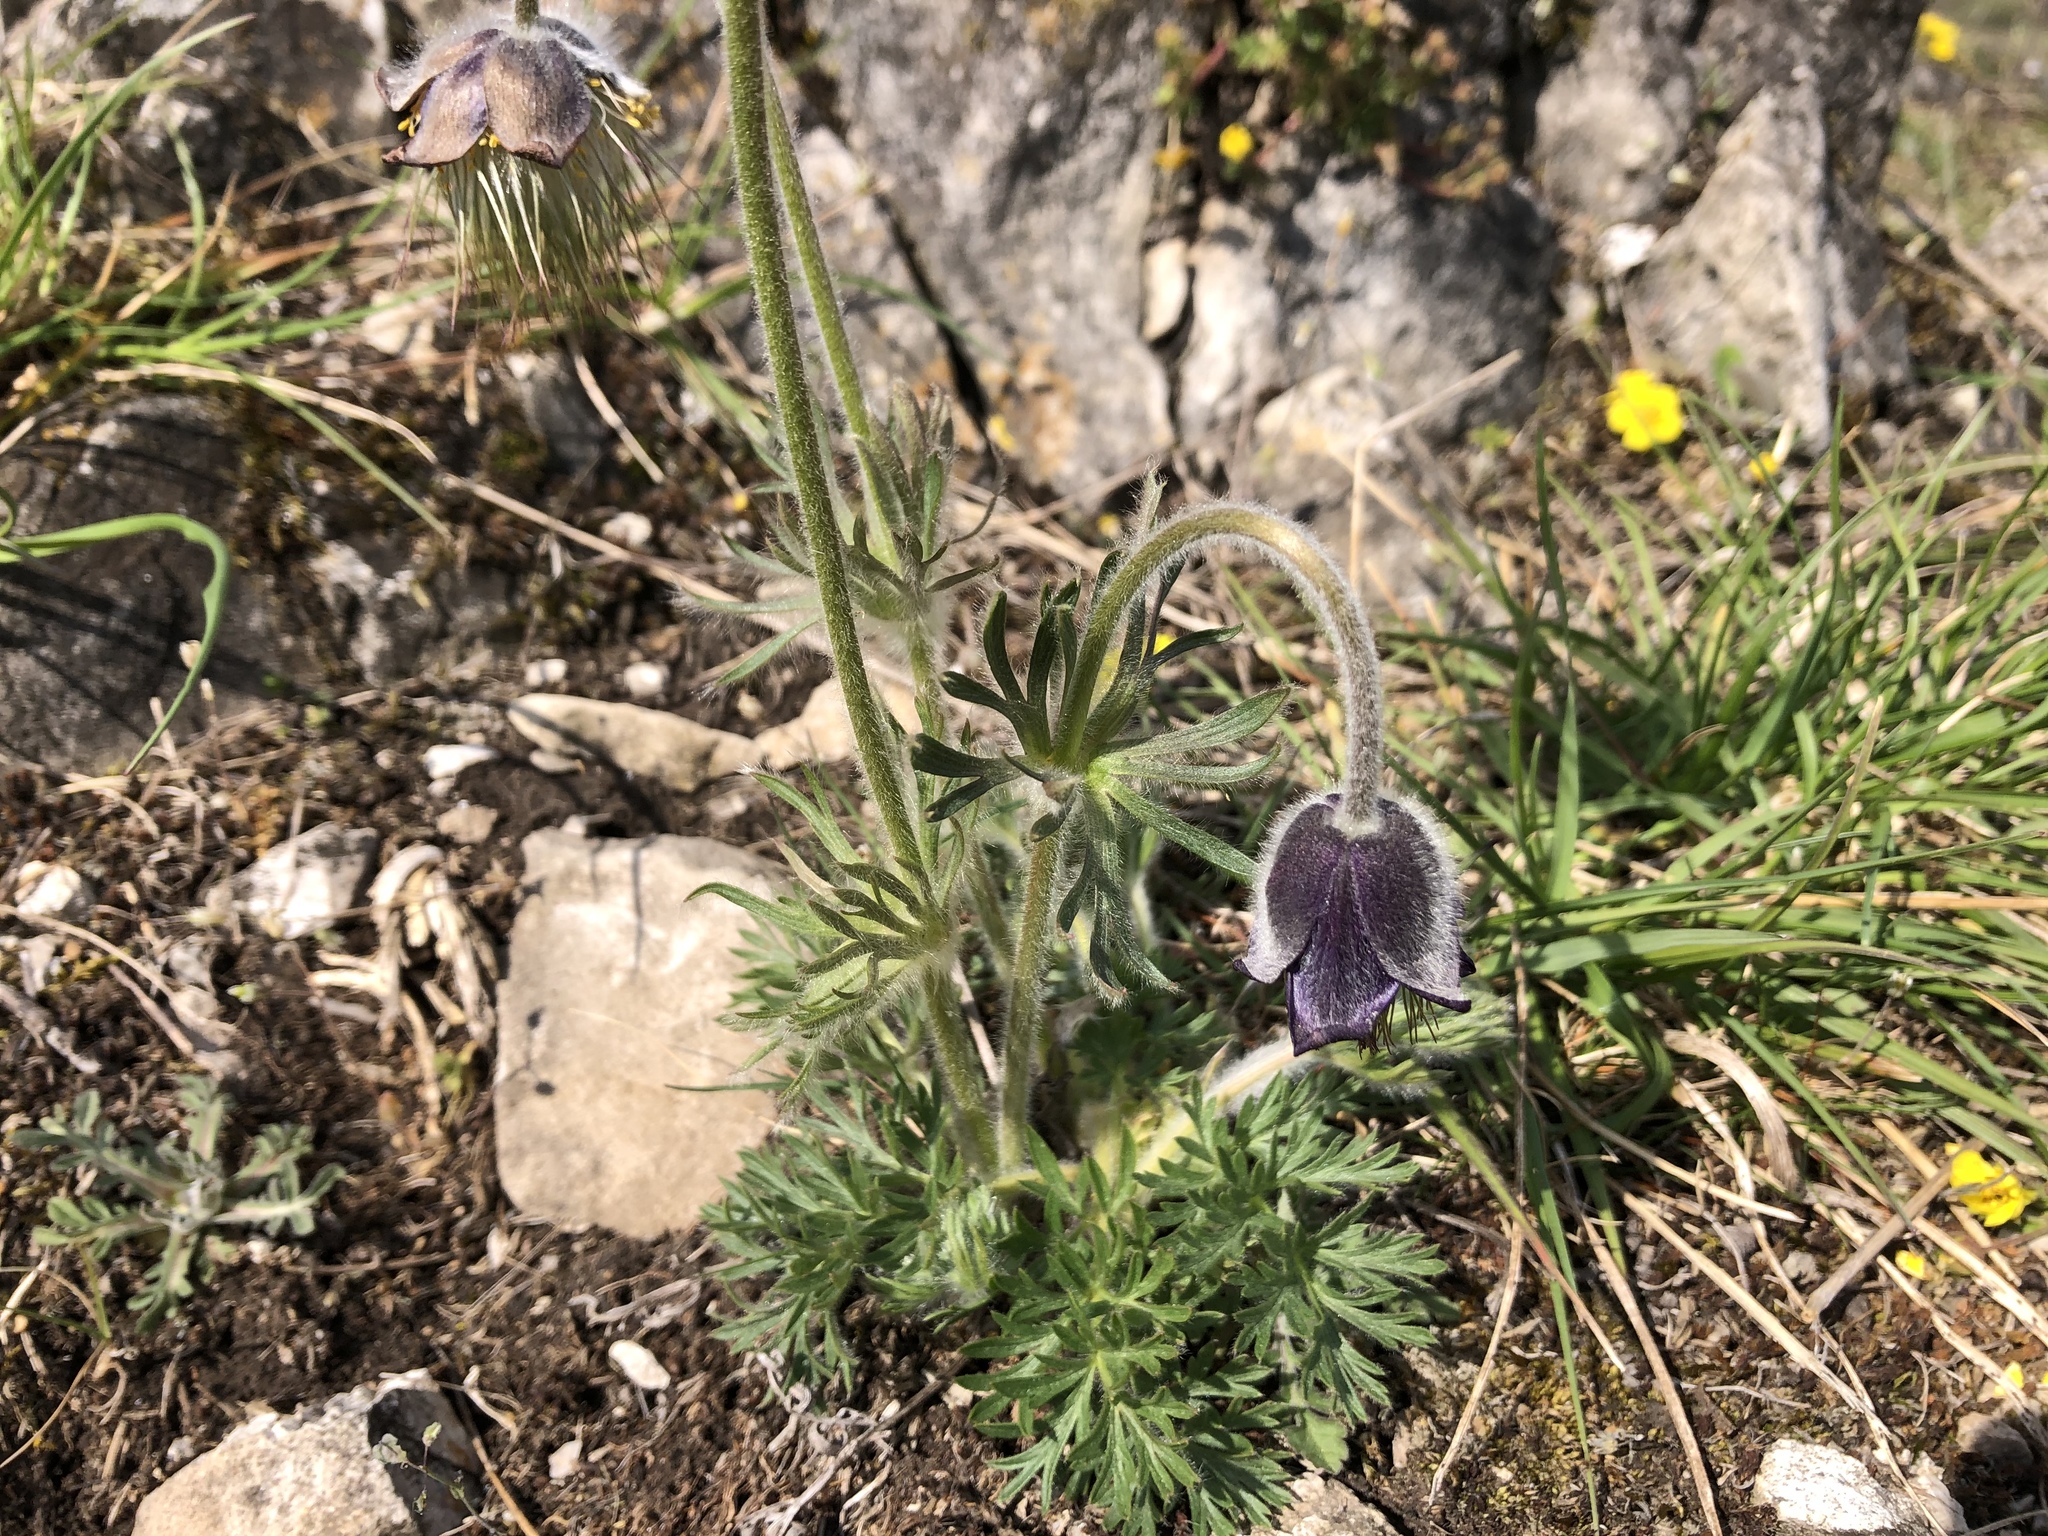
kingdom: Plantae
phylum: Tracheophyta
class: Magnoliopsida
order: Ranunculales
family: Ranunculaceae
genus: Pulsatilla
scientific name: Pulsatilla pratensis
